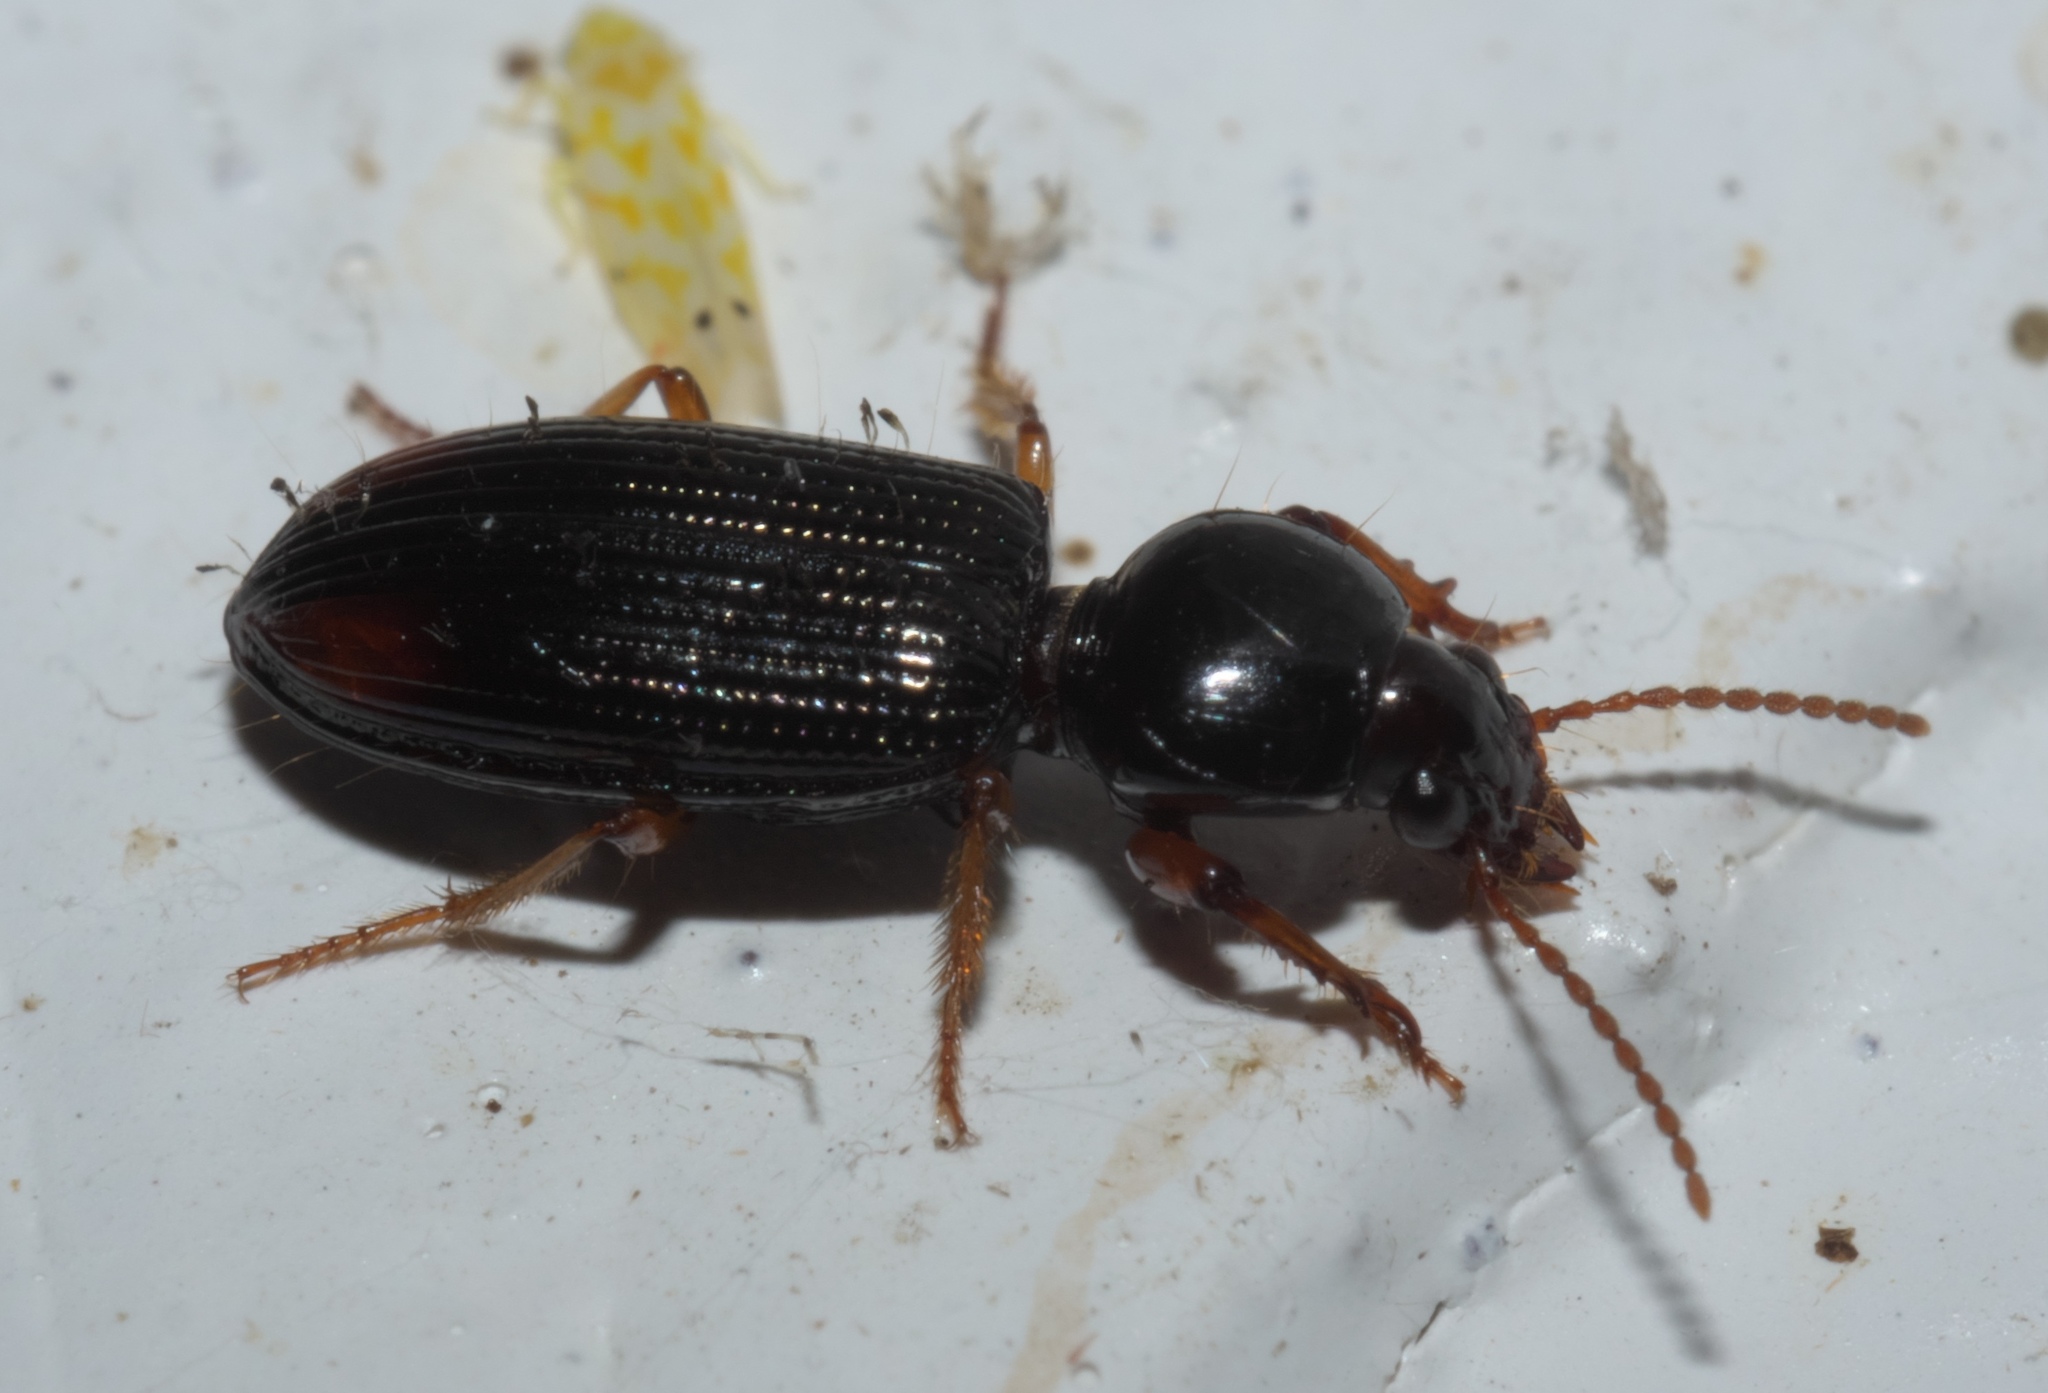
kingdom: Animalia
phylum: Arthropoda
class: Insecta
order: Coleoptera
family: Carabidae
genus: Aspidoglossa
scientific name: Aspidoglossa subangulata
